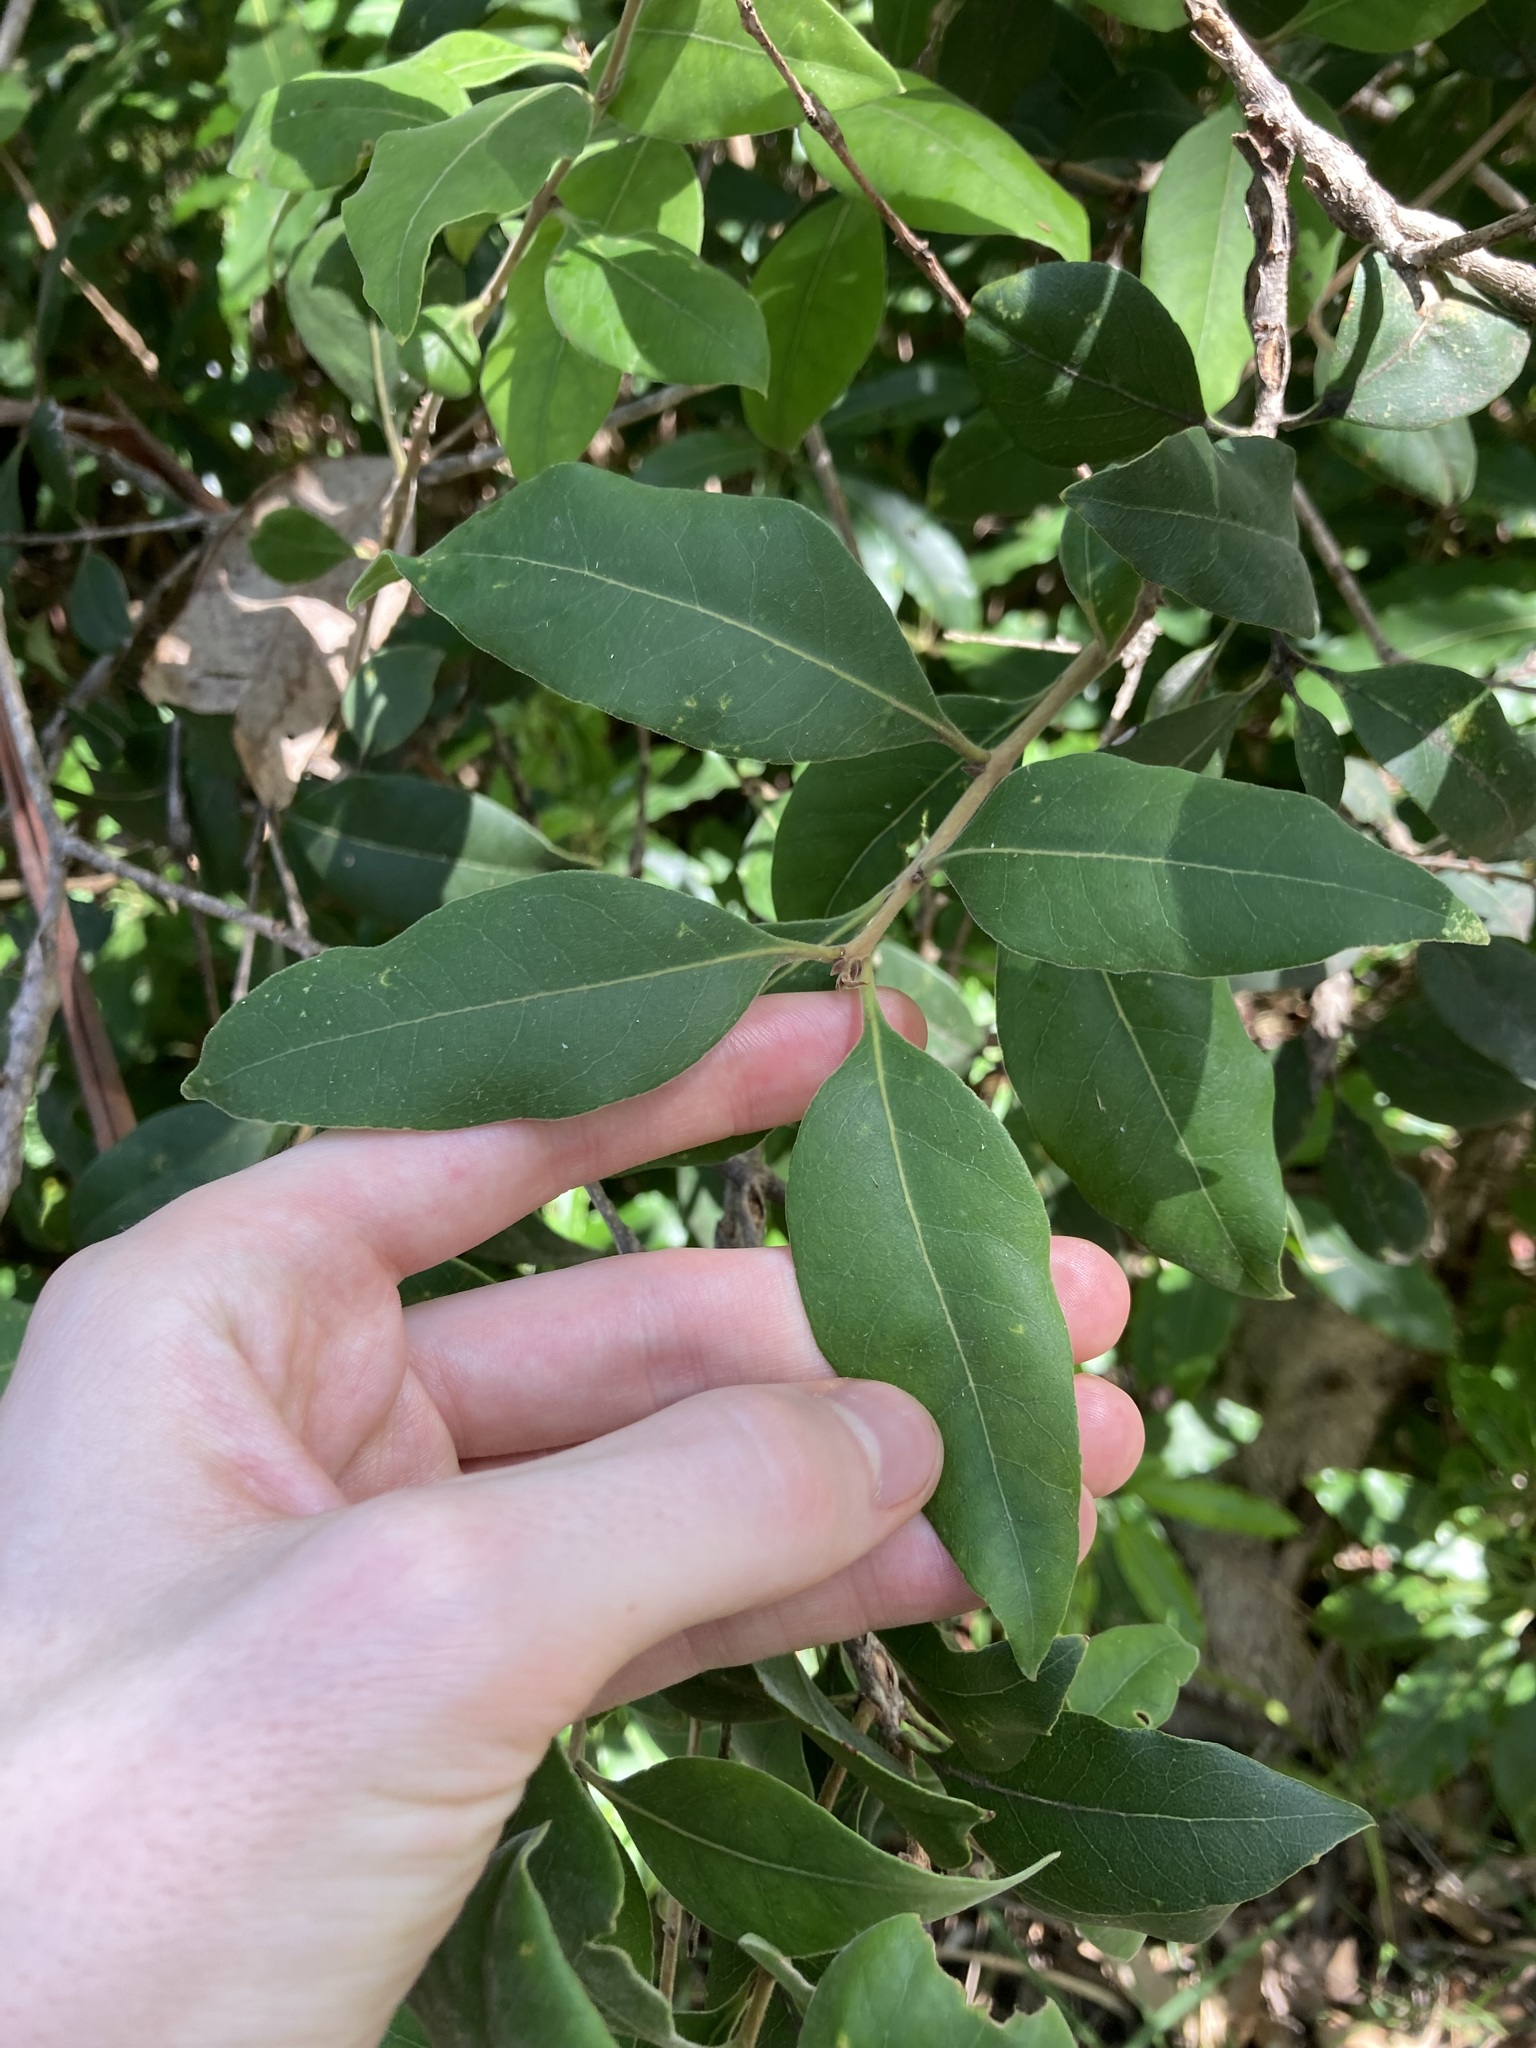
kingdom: Plantae
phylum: Tracheophyta
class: Magnoliopsida
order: Lamiales
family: Oleaceae
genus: Notelaea
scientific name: Notelaea longifolia
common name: Large mock olive
